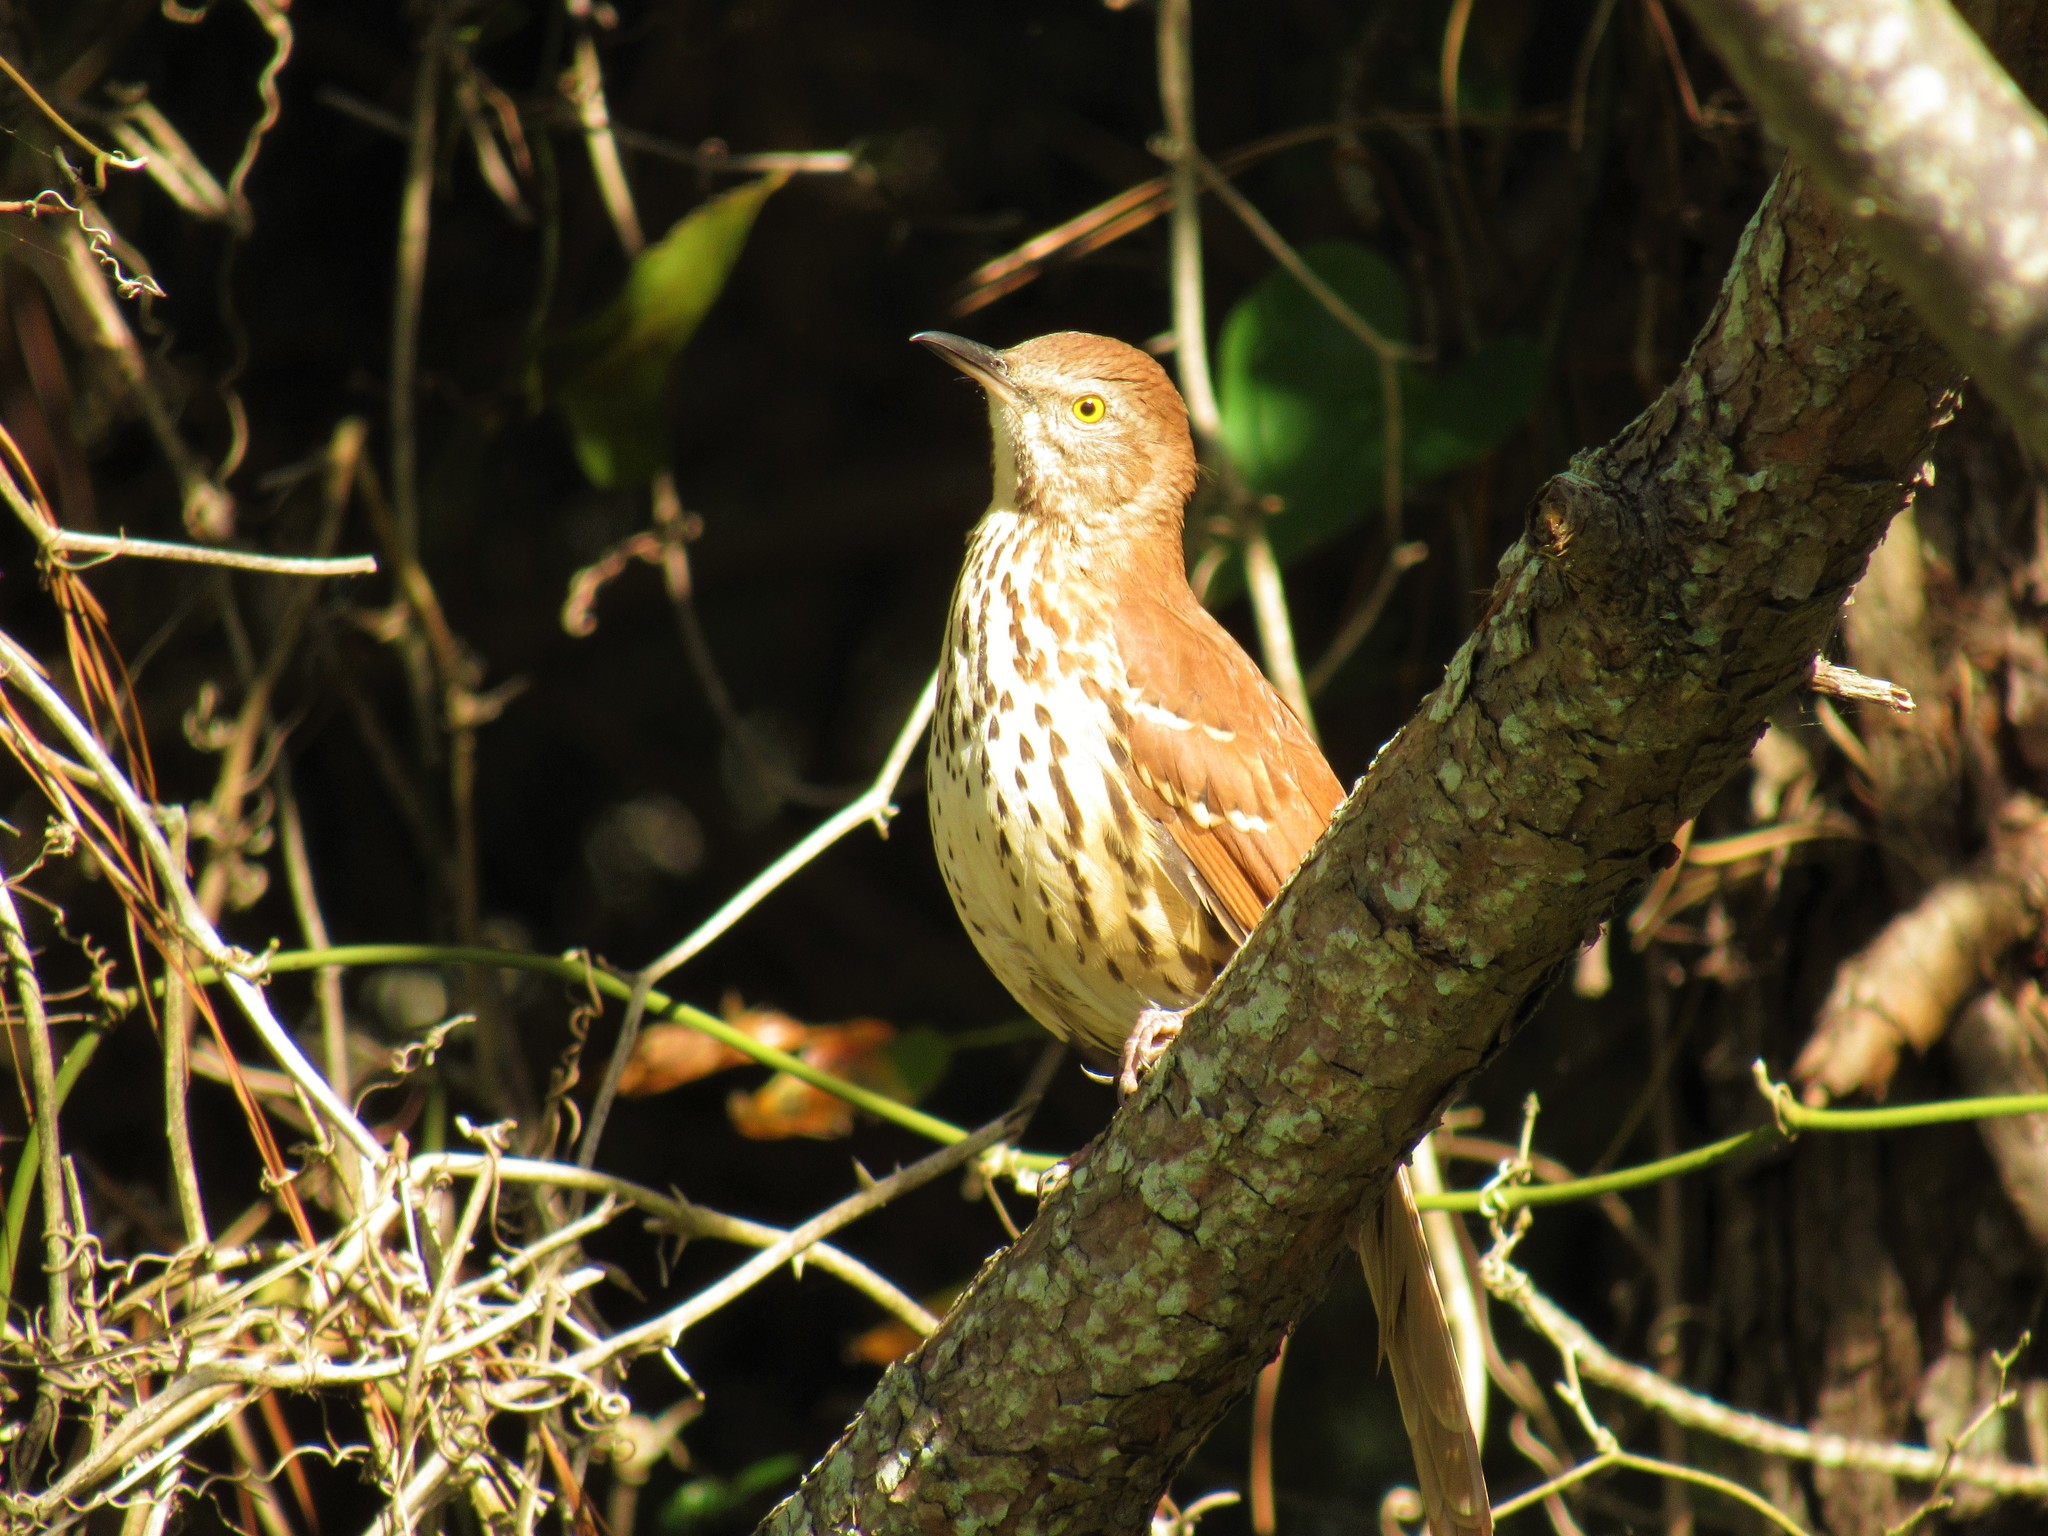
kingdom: Animalia
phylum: Chordata
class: Aves
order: Passeriformes
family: Mimidae
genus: Toxostoma
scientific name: Toxostoma rufum
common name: Brown thrasher
